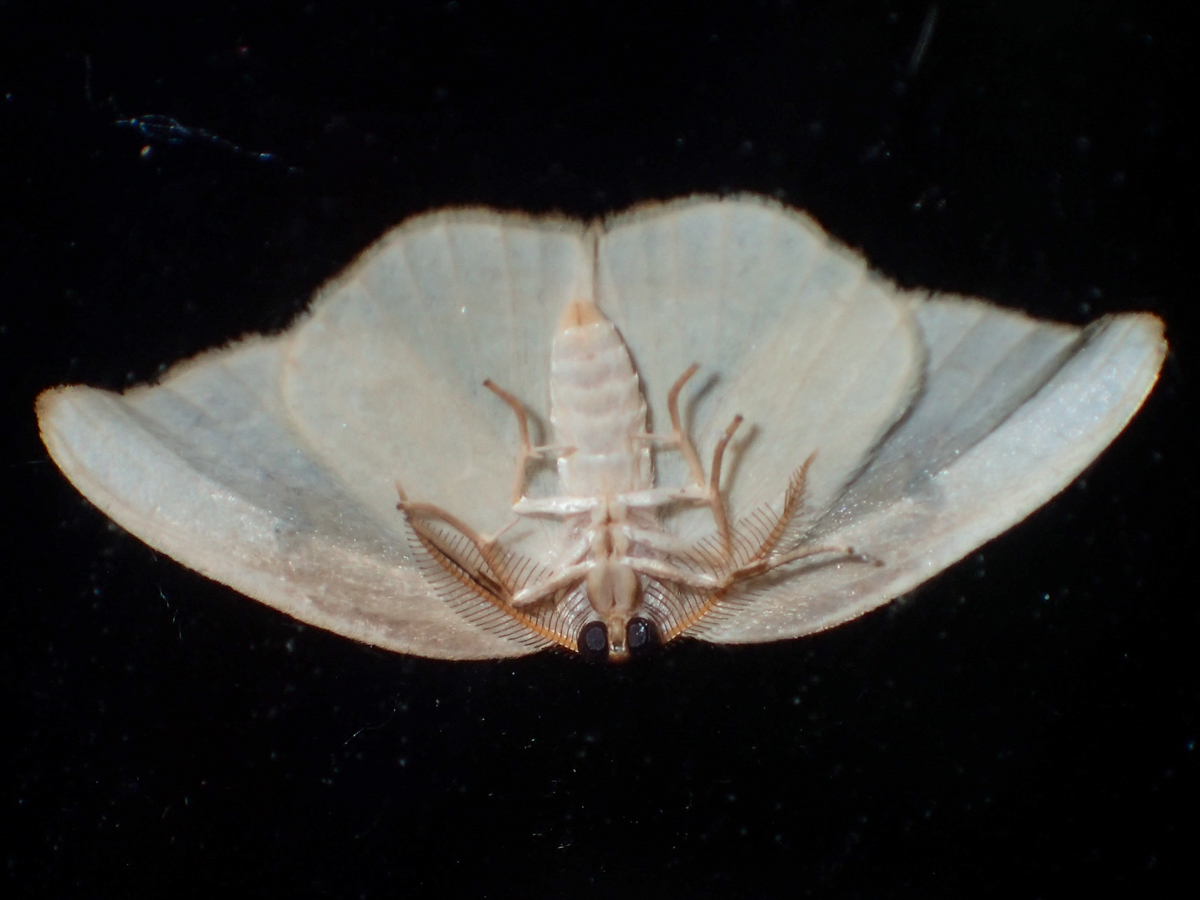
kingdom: Animalia
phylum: Arthropoda
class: Insecta
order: Lepidoptera
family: Drepanidae
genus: Callidrepana
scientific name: Callidrepana gelidata
